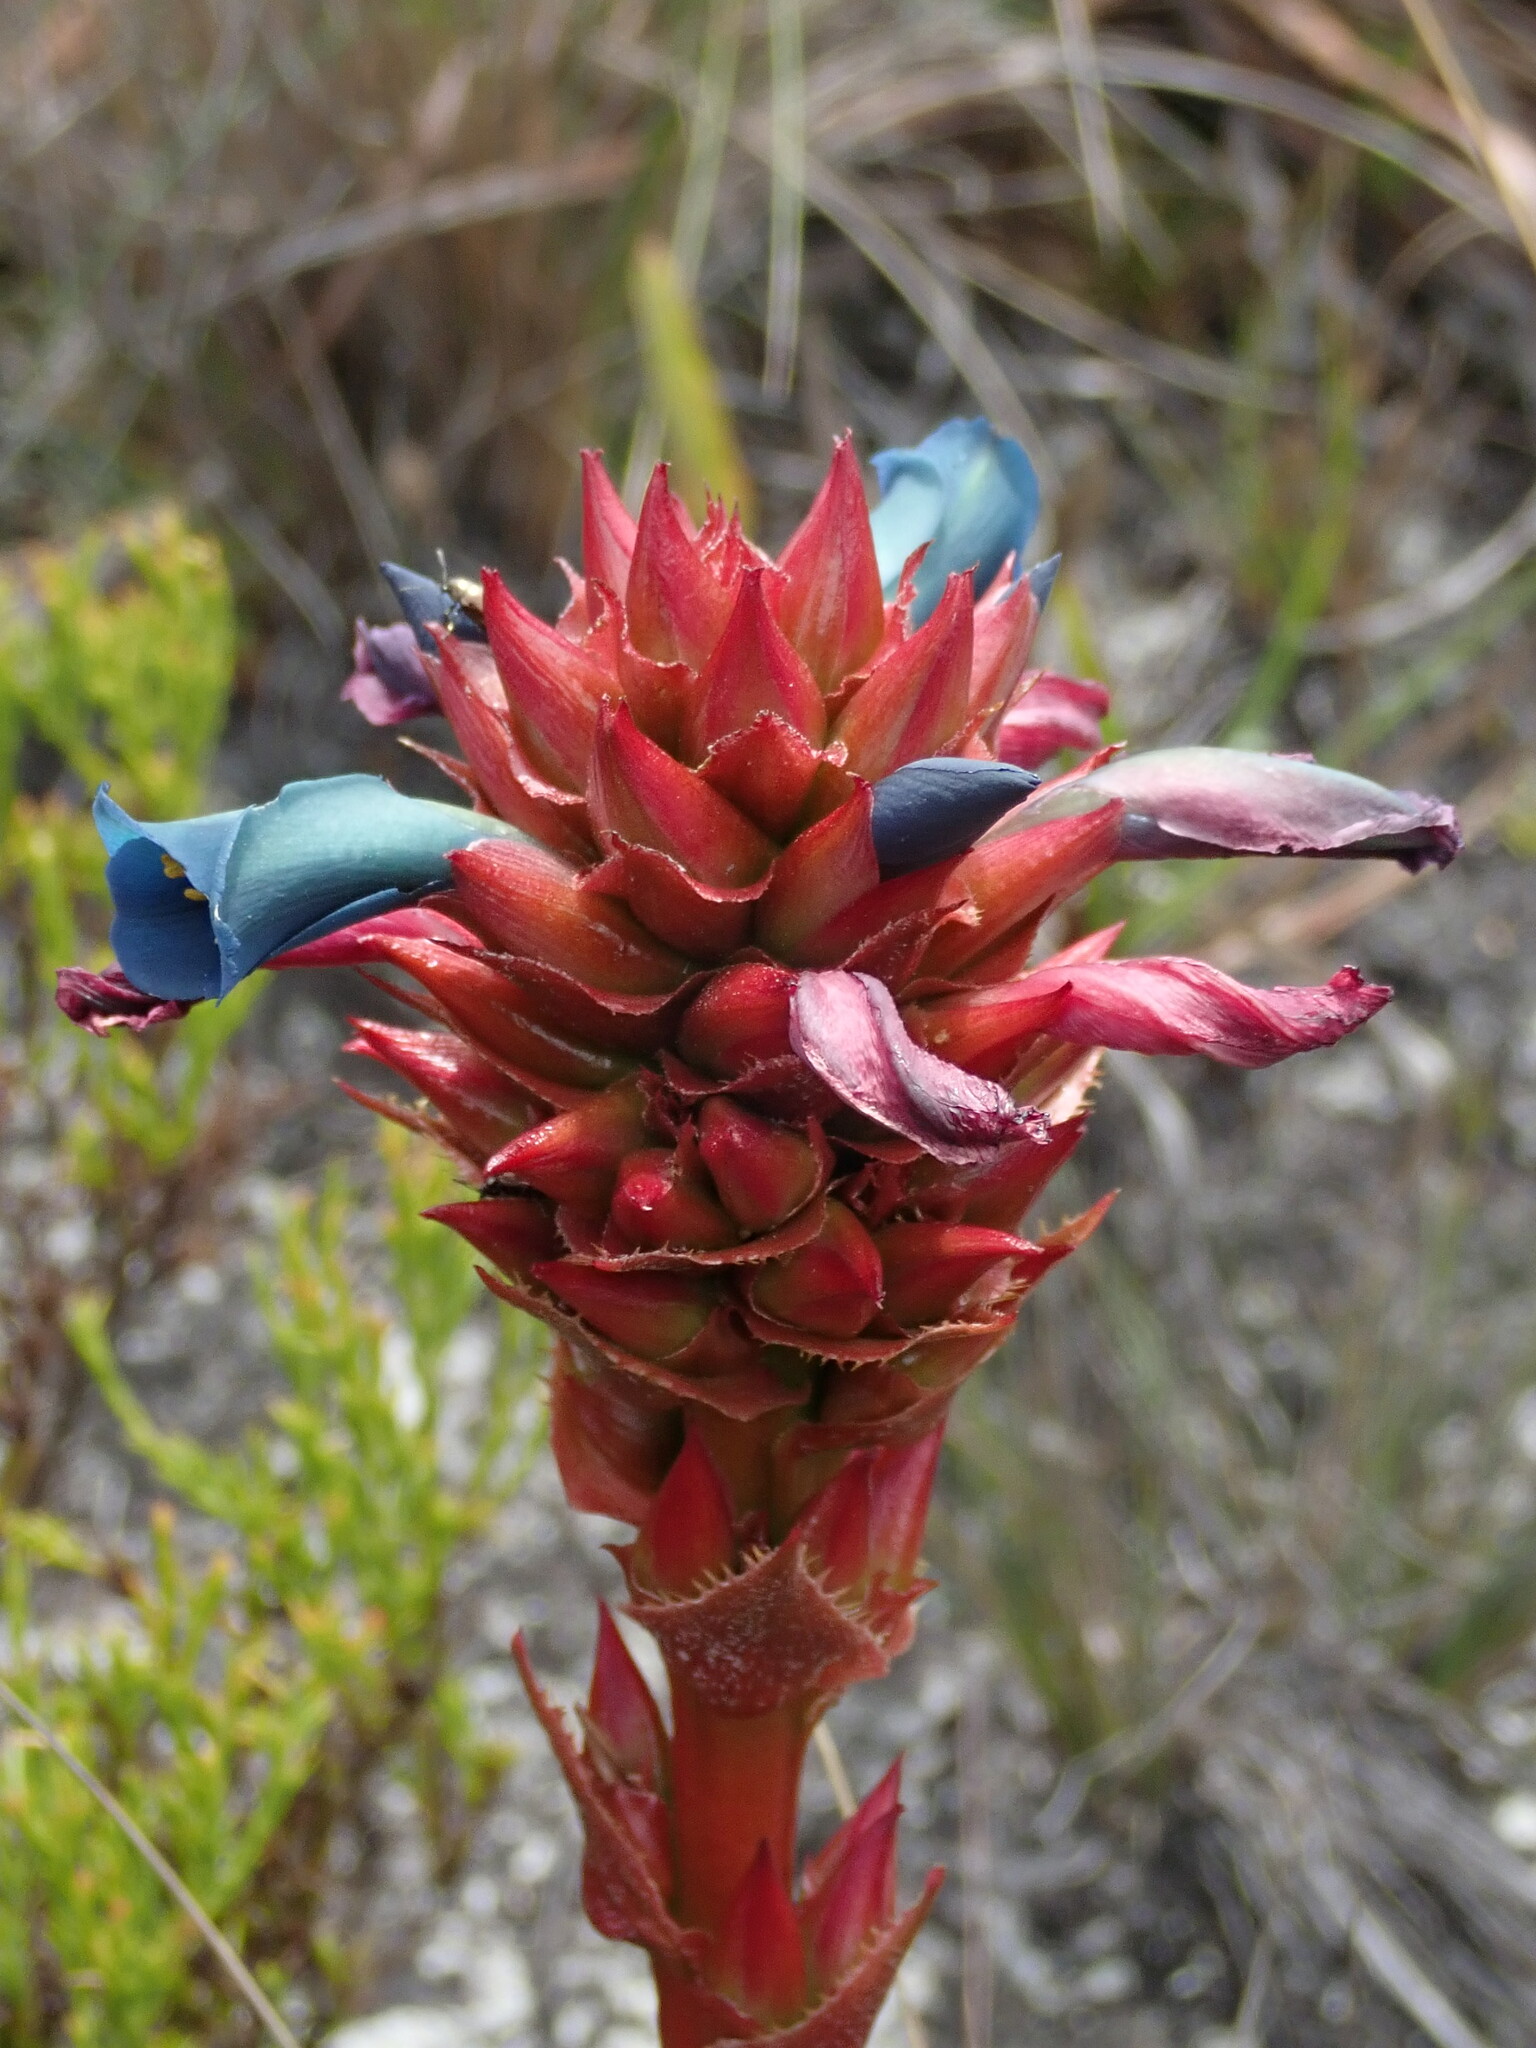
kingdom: Plantae
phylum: Tracheophyta
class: Liliopsida
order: Poales
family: Bromeliaceae
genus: Puya
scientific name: Puya eryngioides
